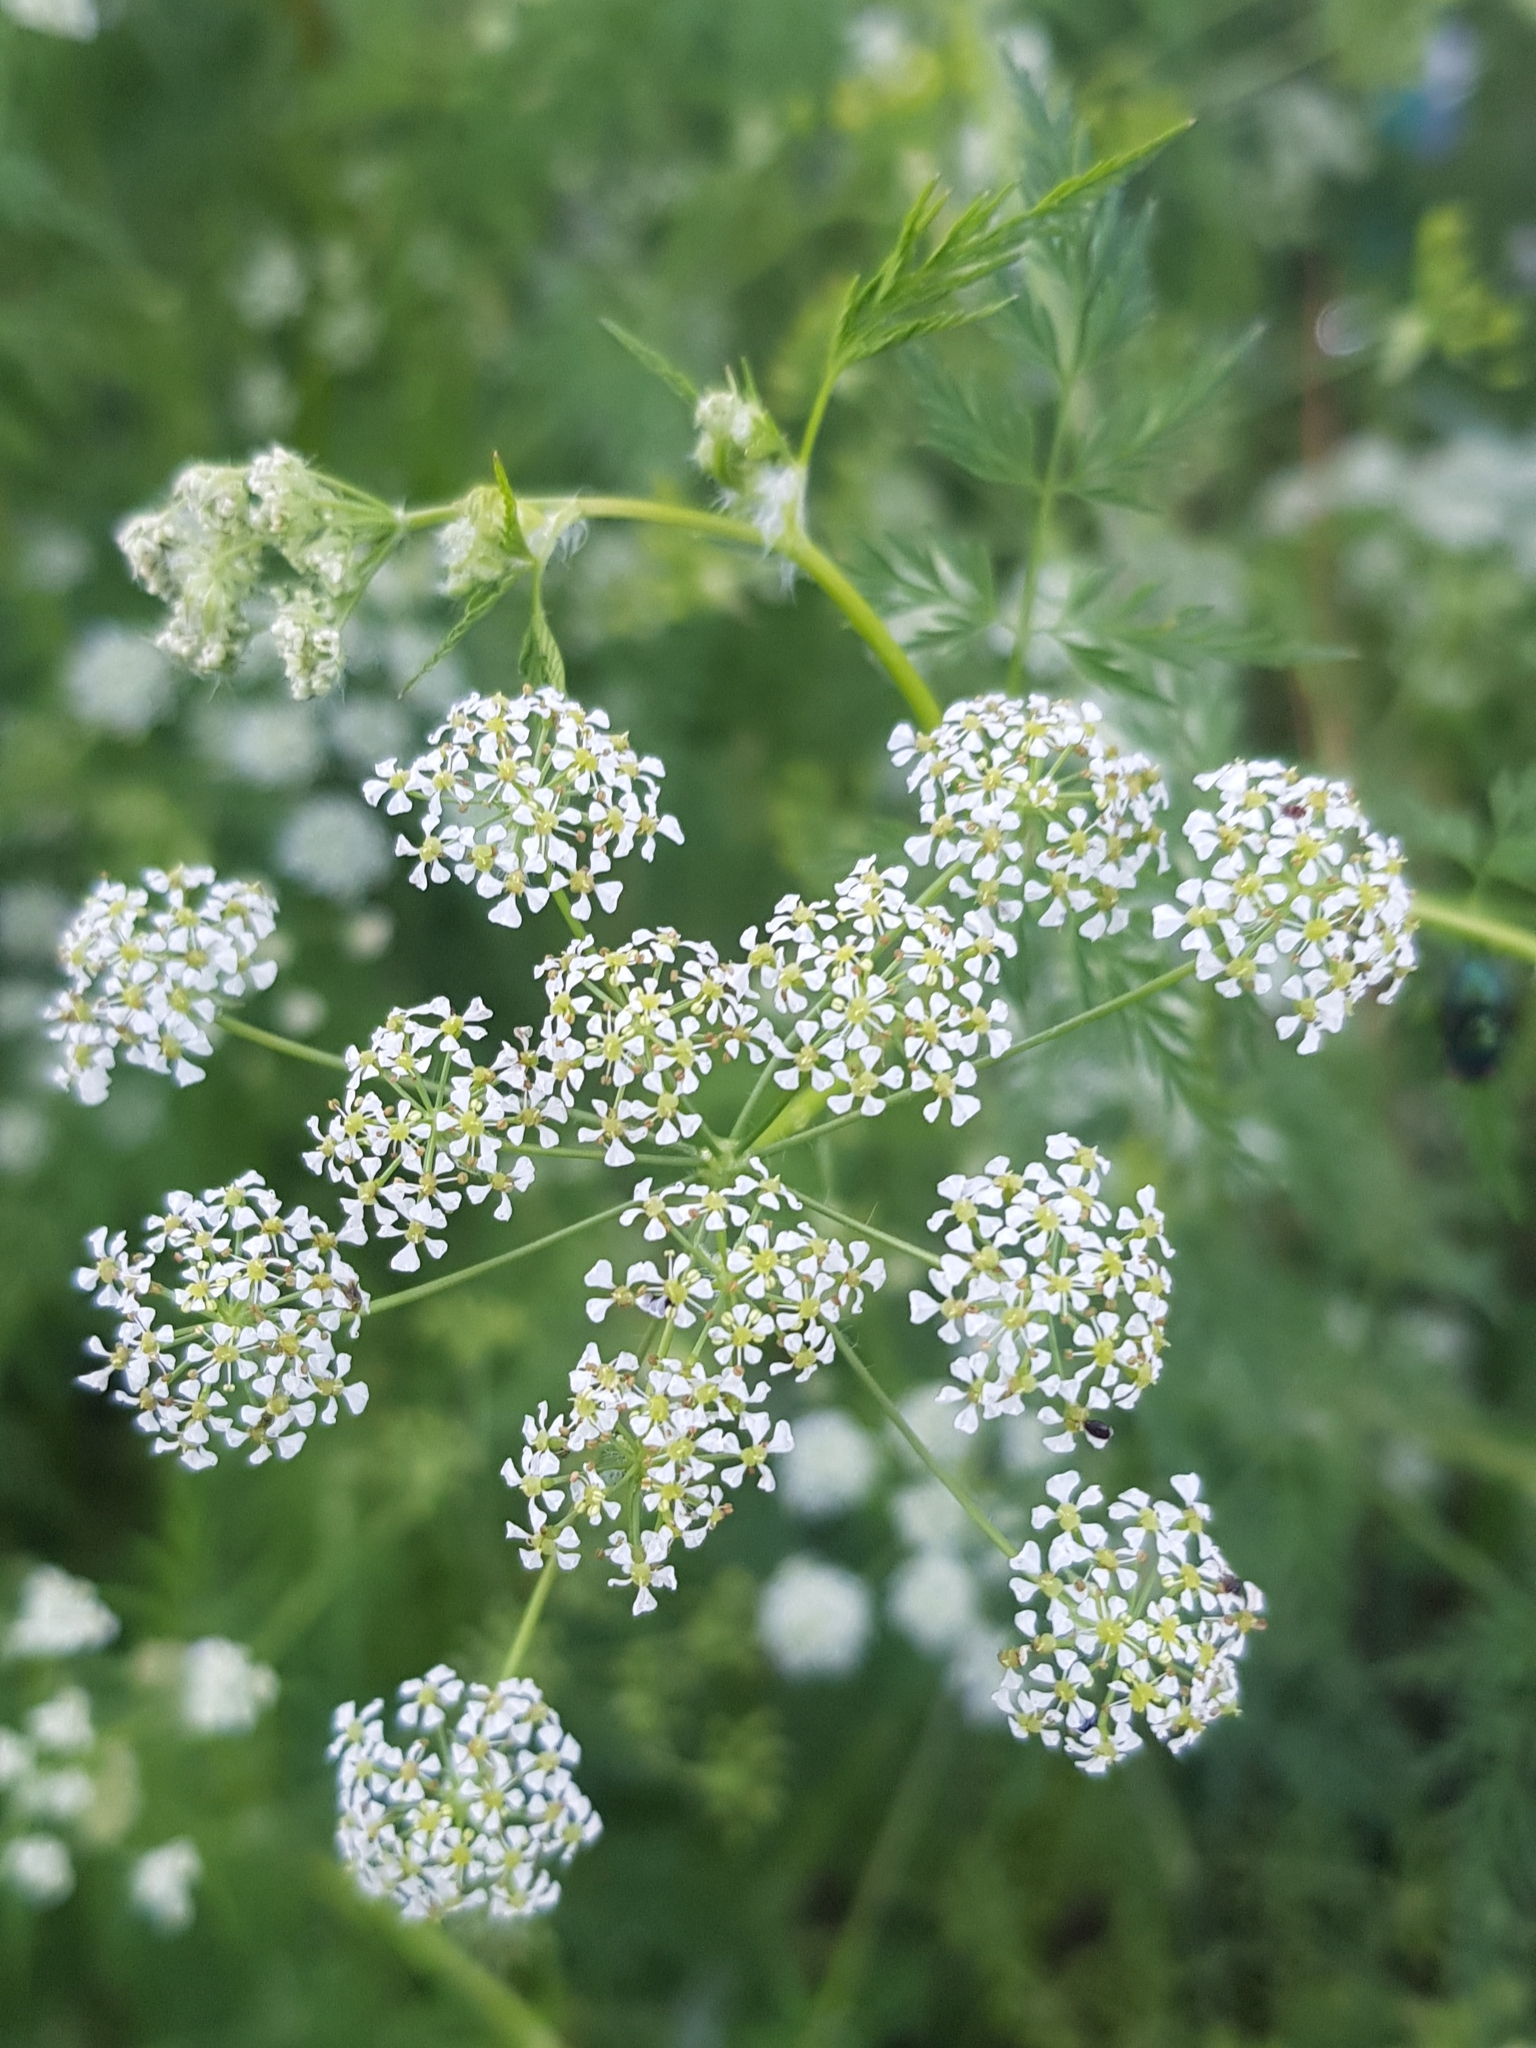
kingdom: Plantae
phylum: Tracheophyta
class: Magnoliopsida
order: Apiales
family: Apiaceae
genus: Sphallerocarpus
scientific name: Sphallerocarpus gracilis
